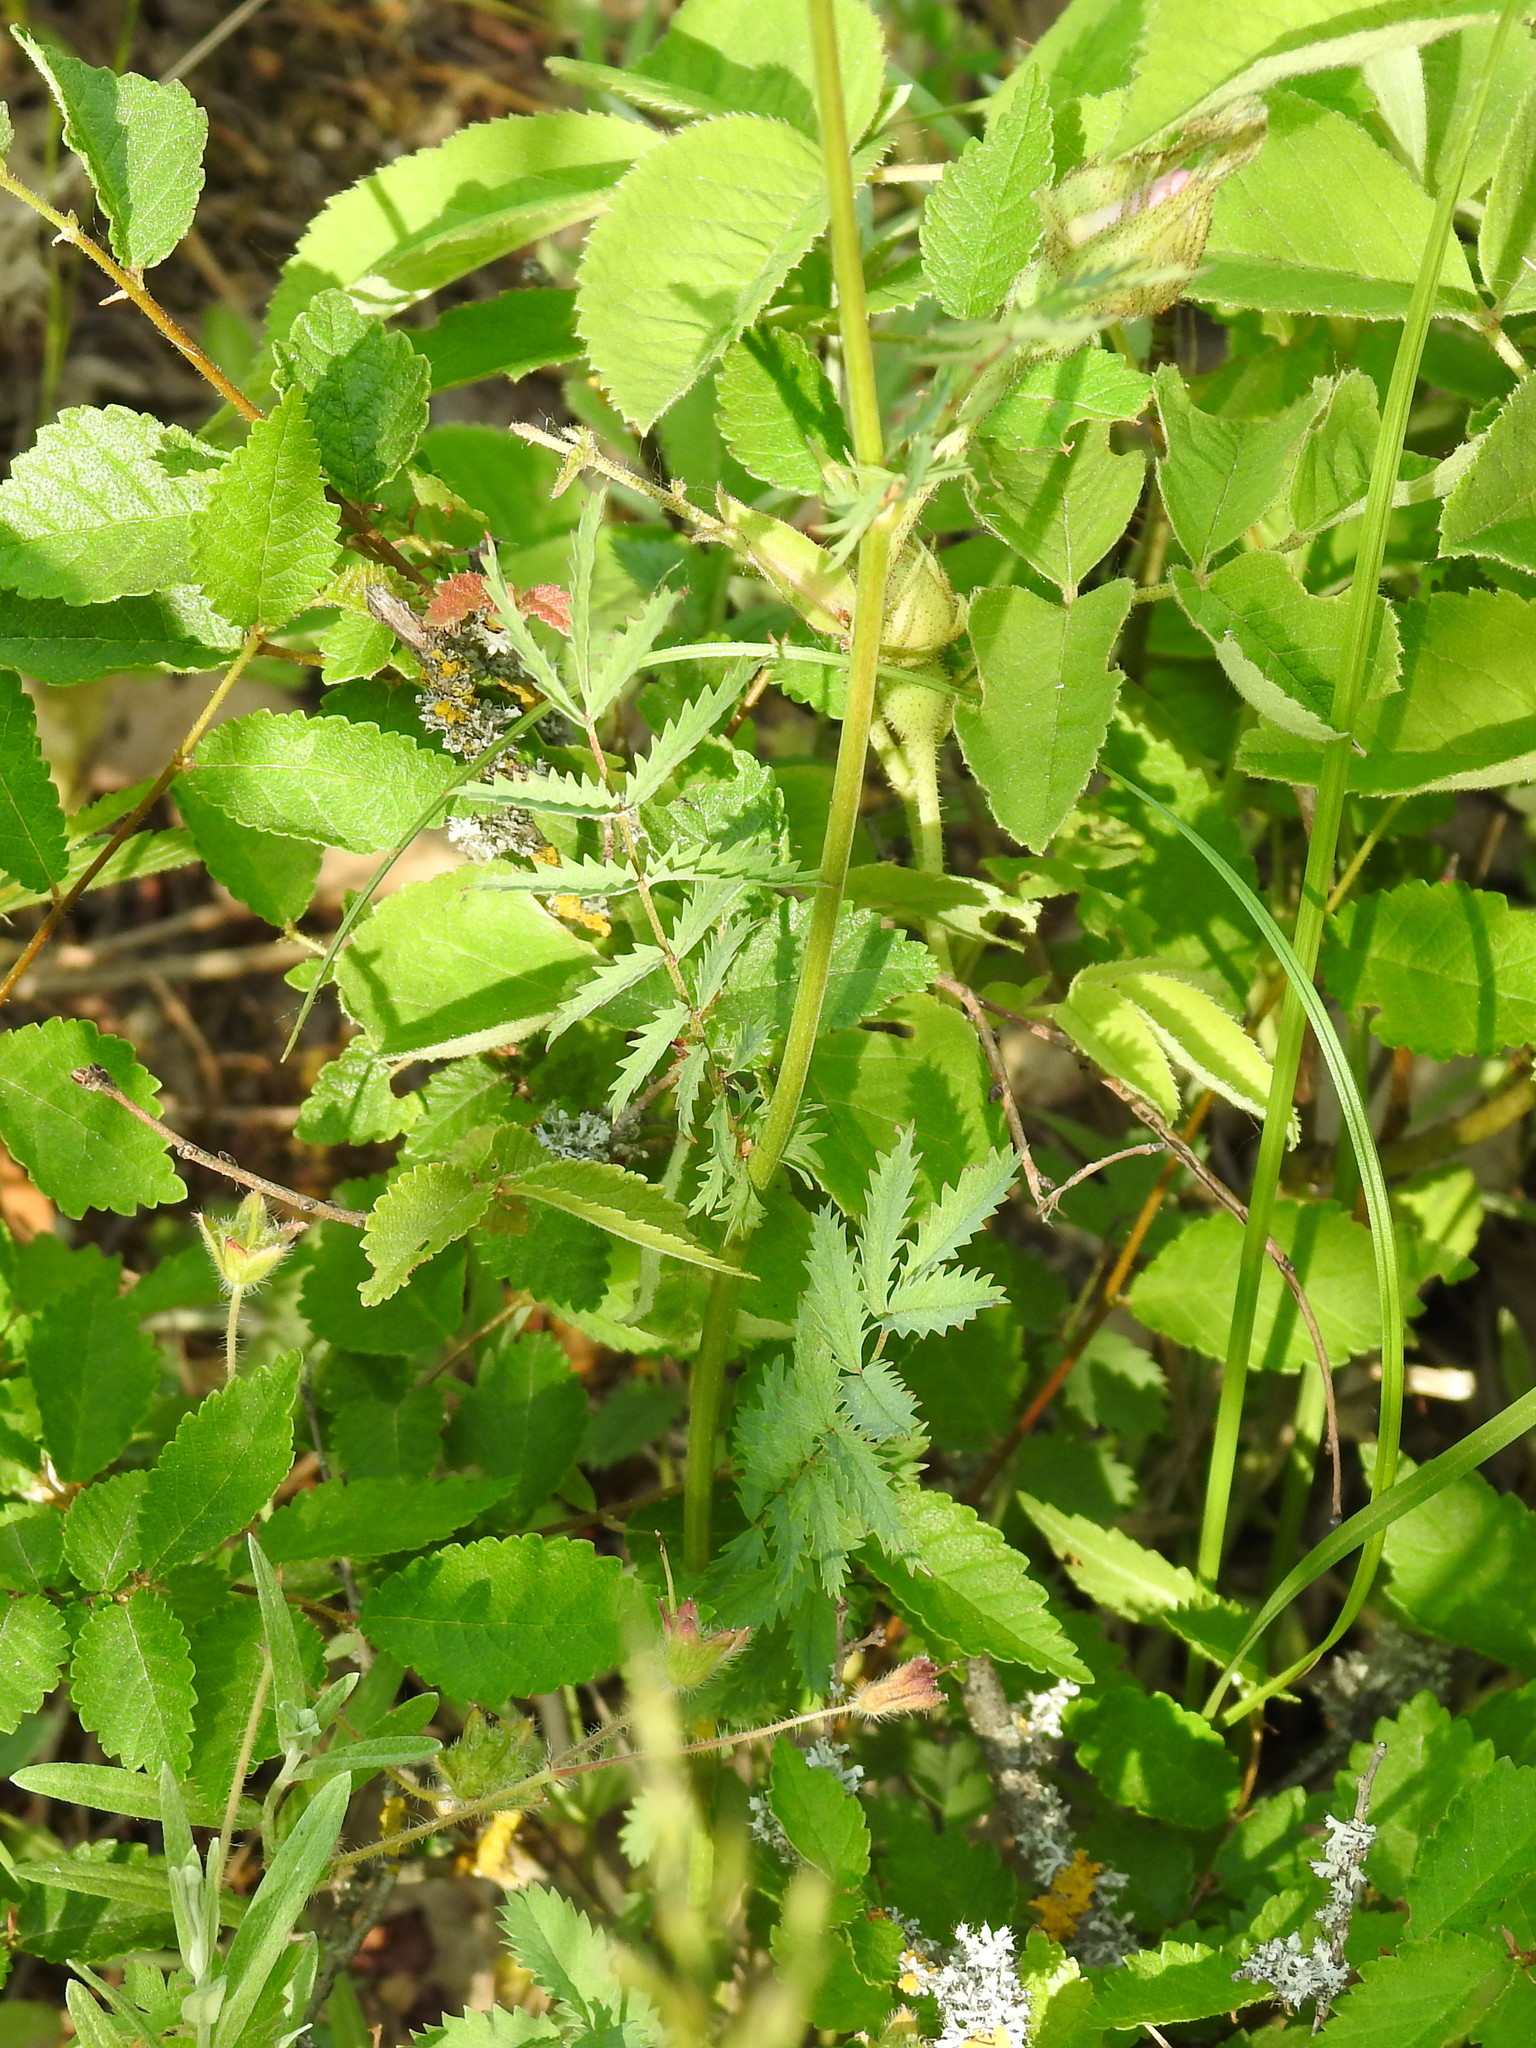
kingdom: Plantae
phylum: Tracheophyta
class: Magnoliopsida
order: Rosales
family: Rosaceae
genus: Poterium
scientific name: Poterium sanguisorba
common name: Salad burnet
